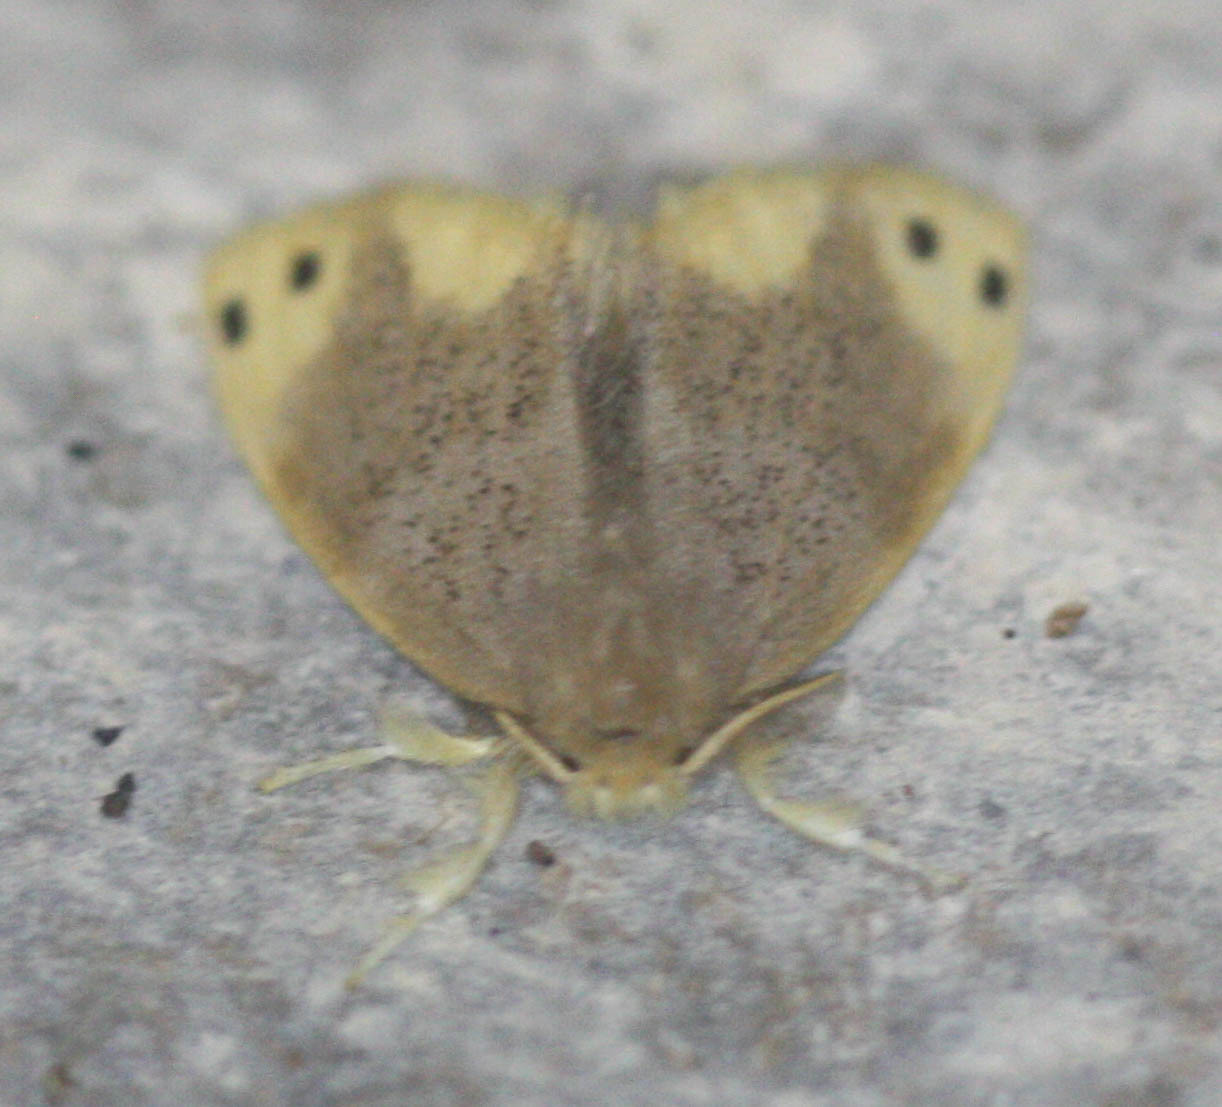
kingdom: Animalia
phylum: Arthropoda
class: Insecta
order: Lepidoptera
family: Erebidae
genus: Arna
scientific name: Arna bipunctapex
